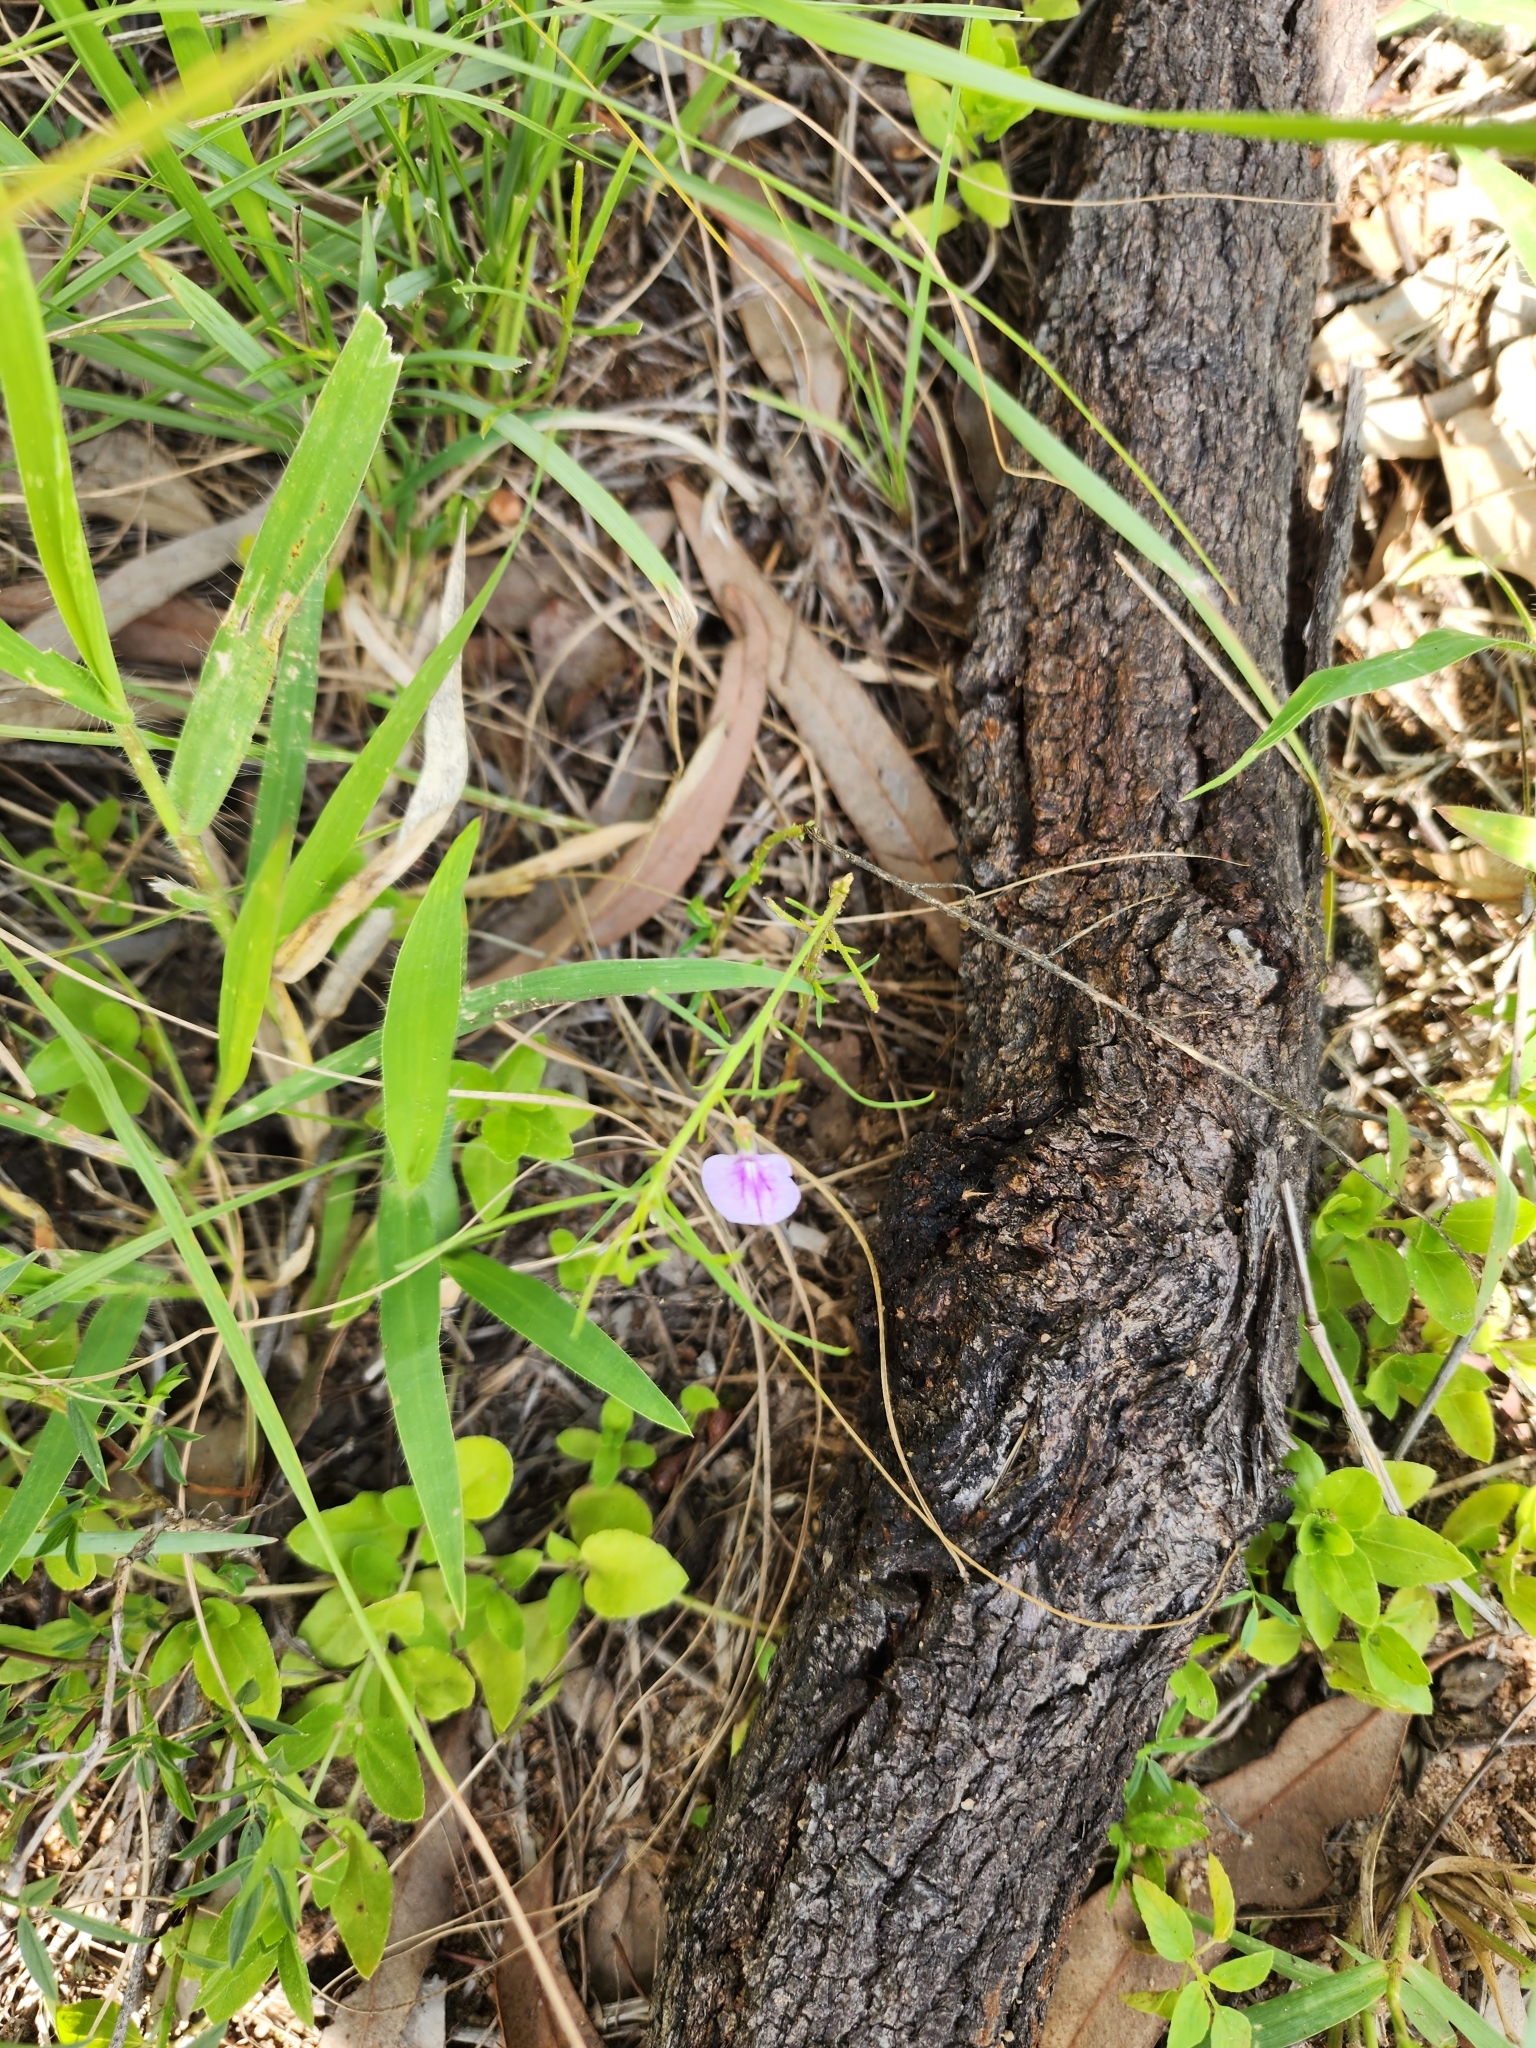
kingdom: Plantae
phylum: Tracheophyta
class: Magnoliopsida
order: Malpighiales
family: Violaceae
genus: Pigea
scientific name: Pigea enneasperma
